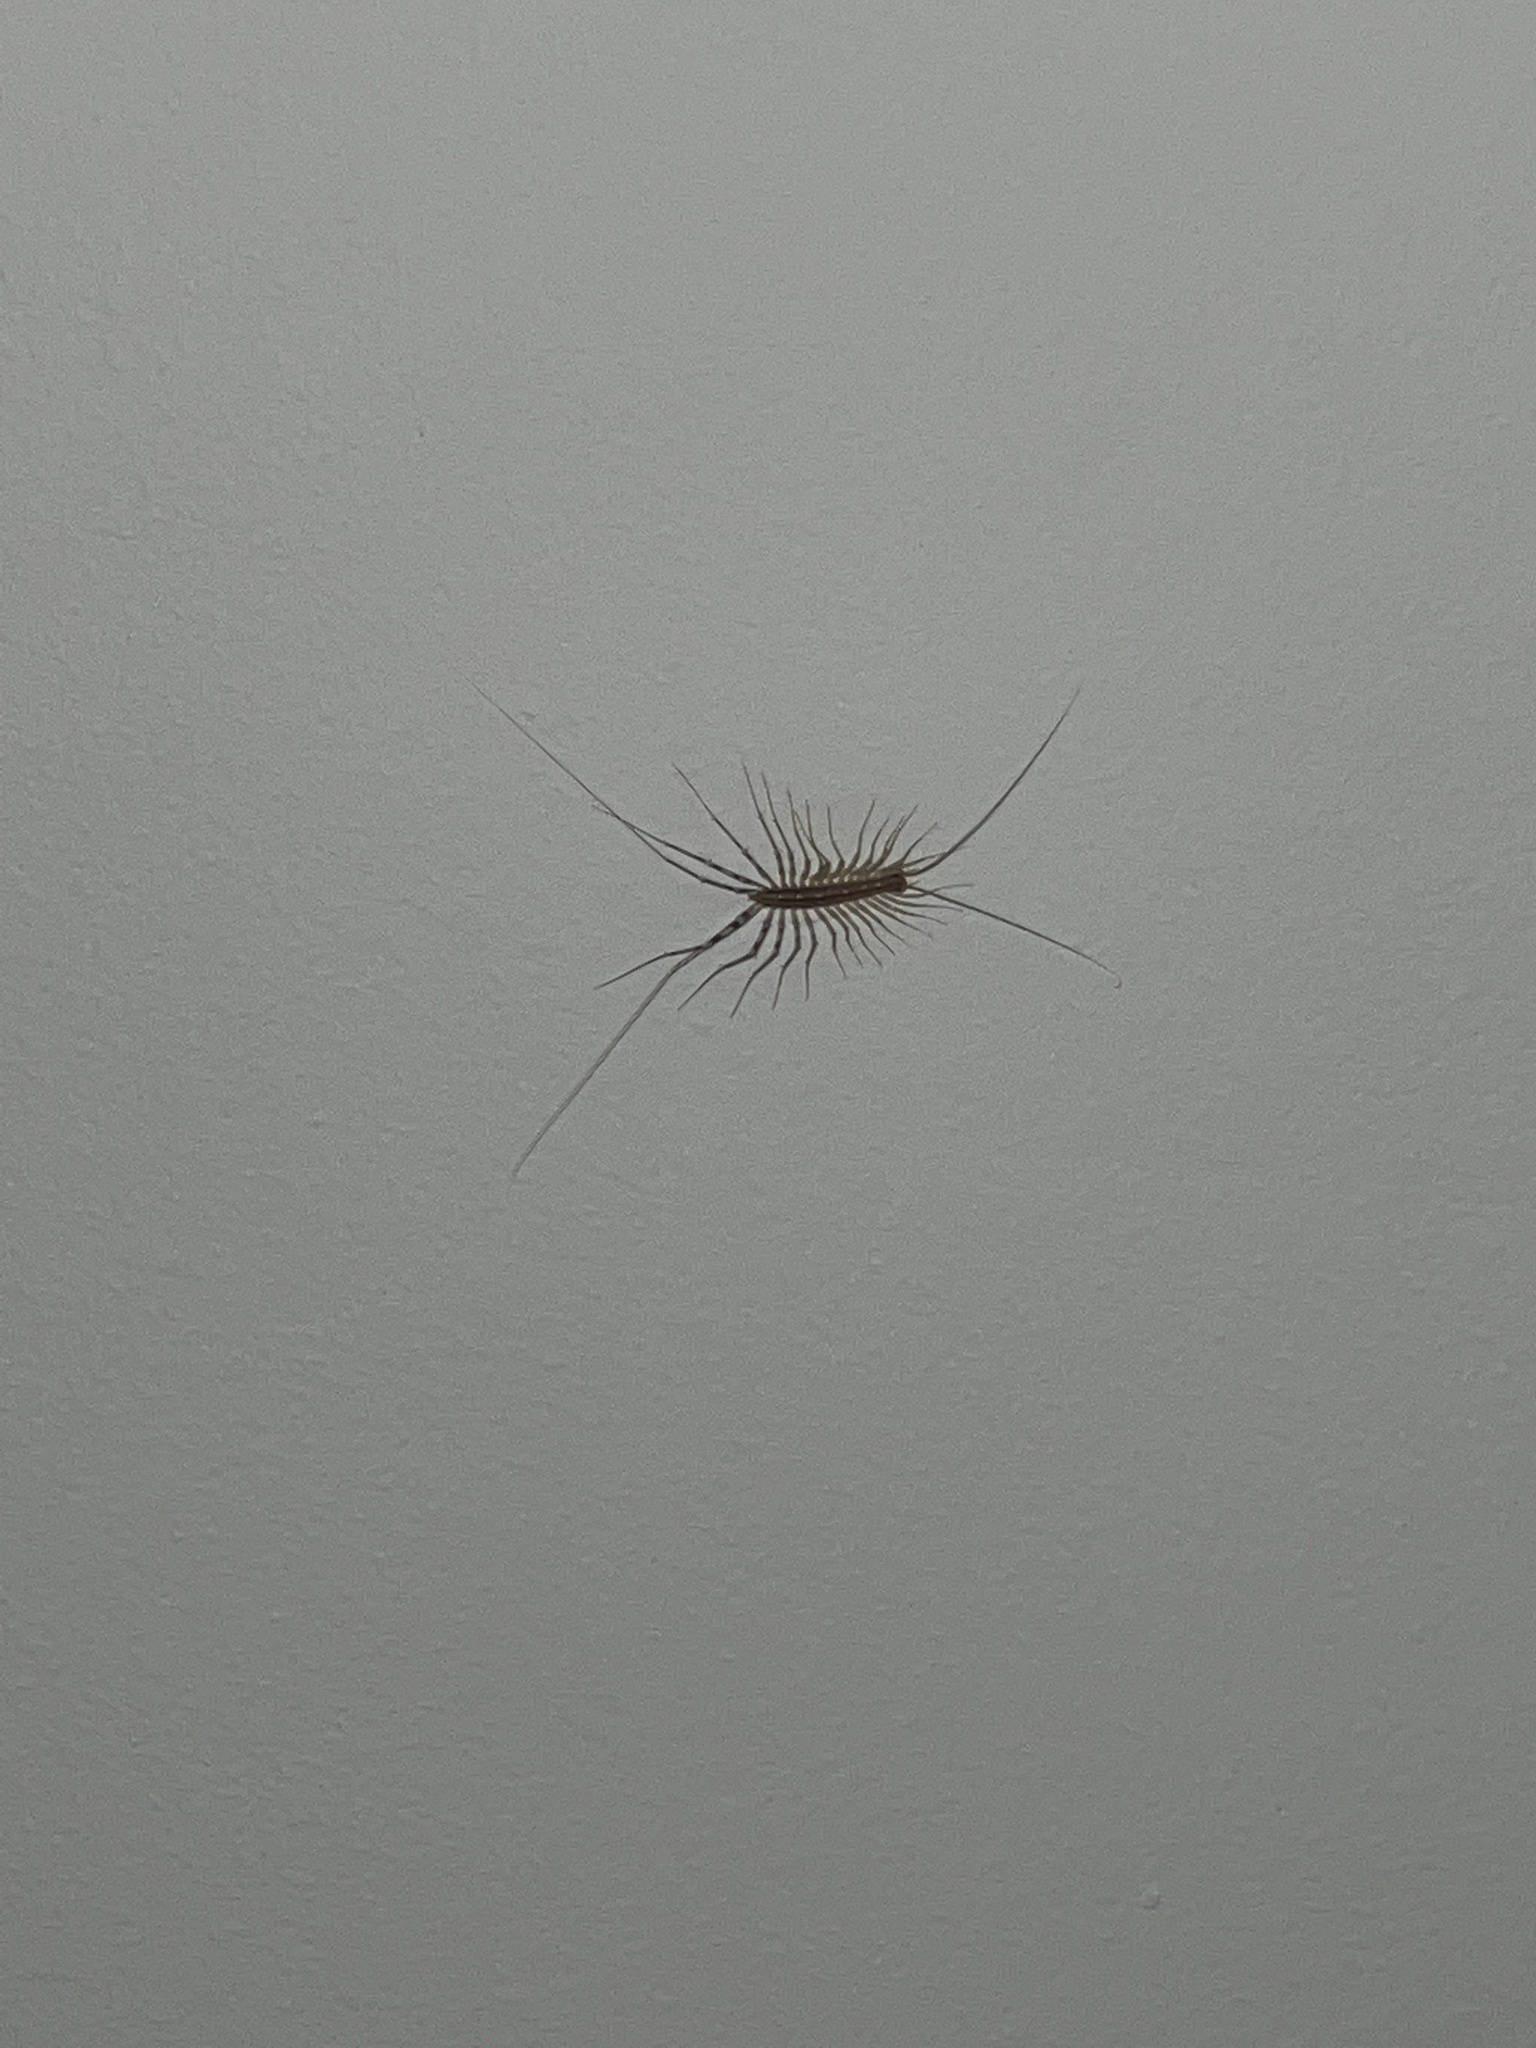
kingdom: Animalia
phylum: Arthropoda
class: Chilopoda
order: Scutigeromorpha
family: Scutigeridae
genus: Scutigera
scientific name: Scutigera coleoptrata
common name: House centipede
